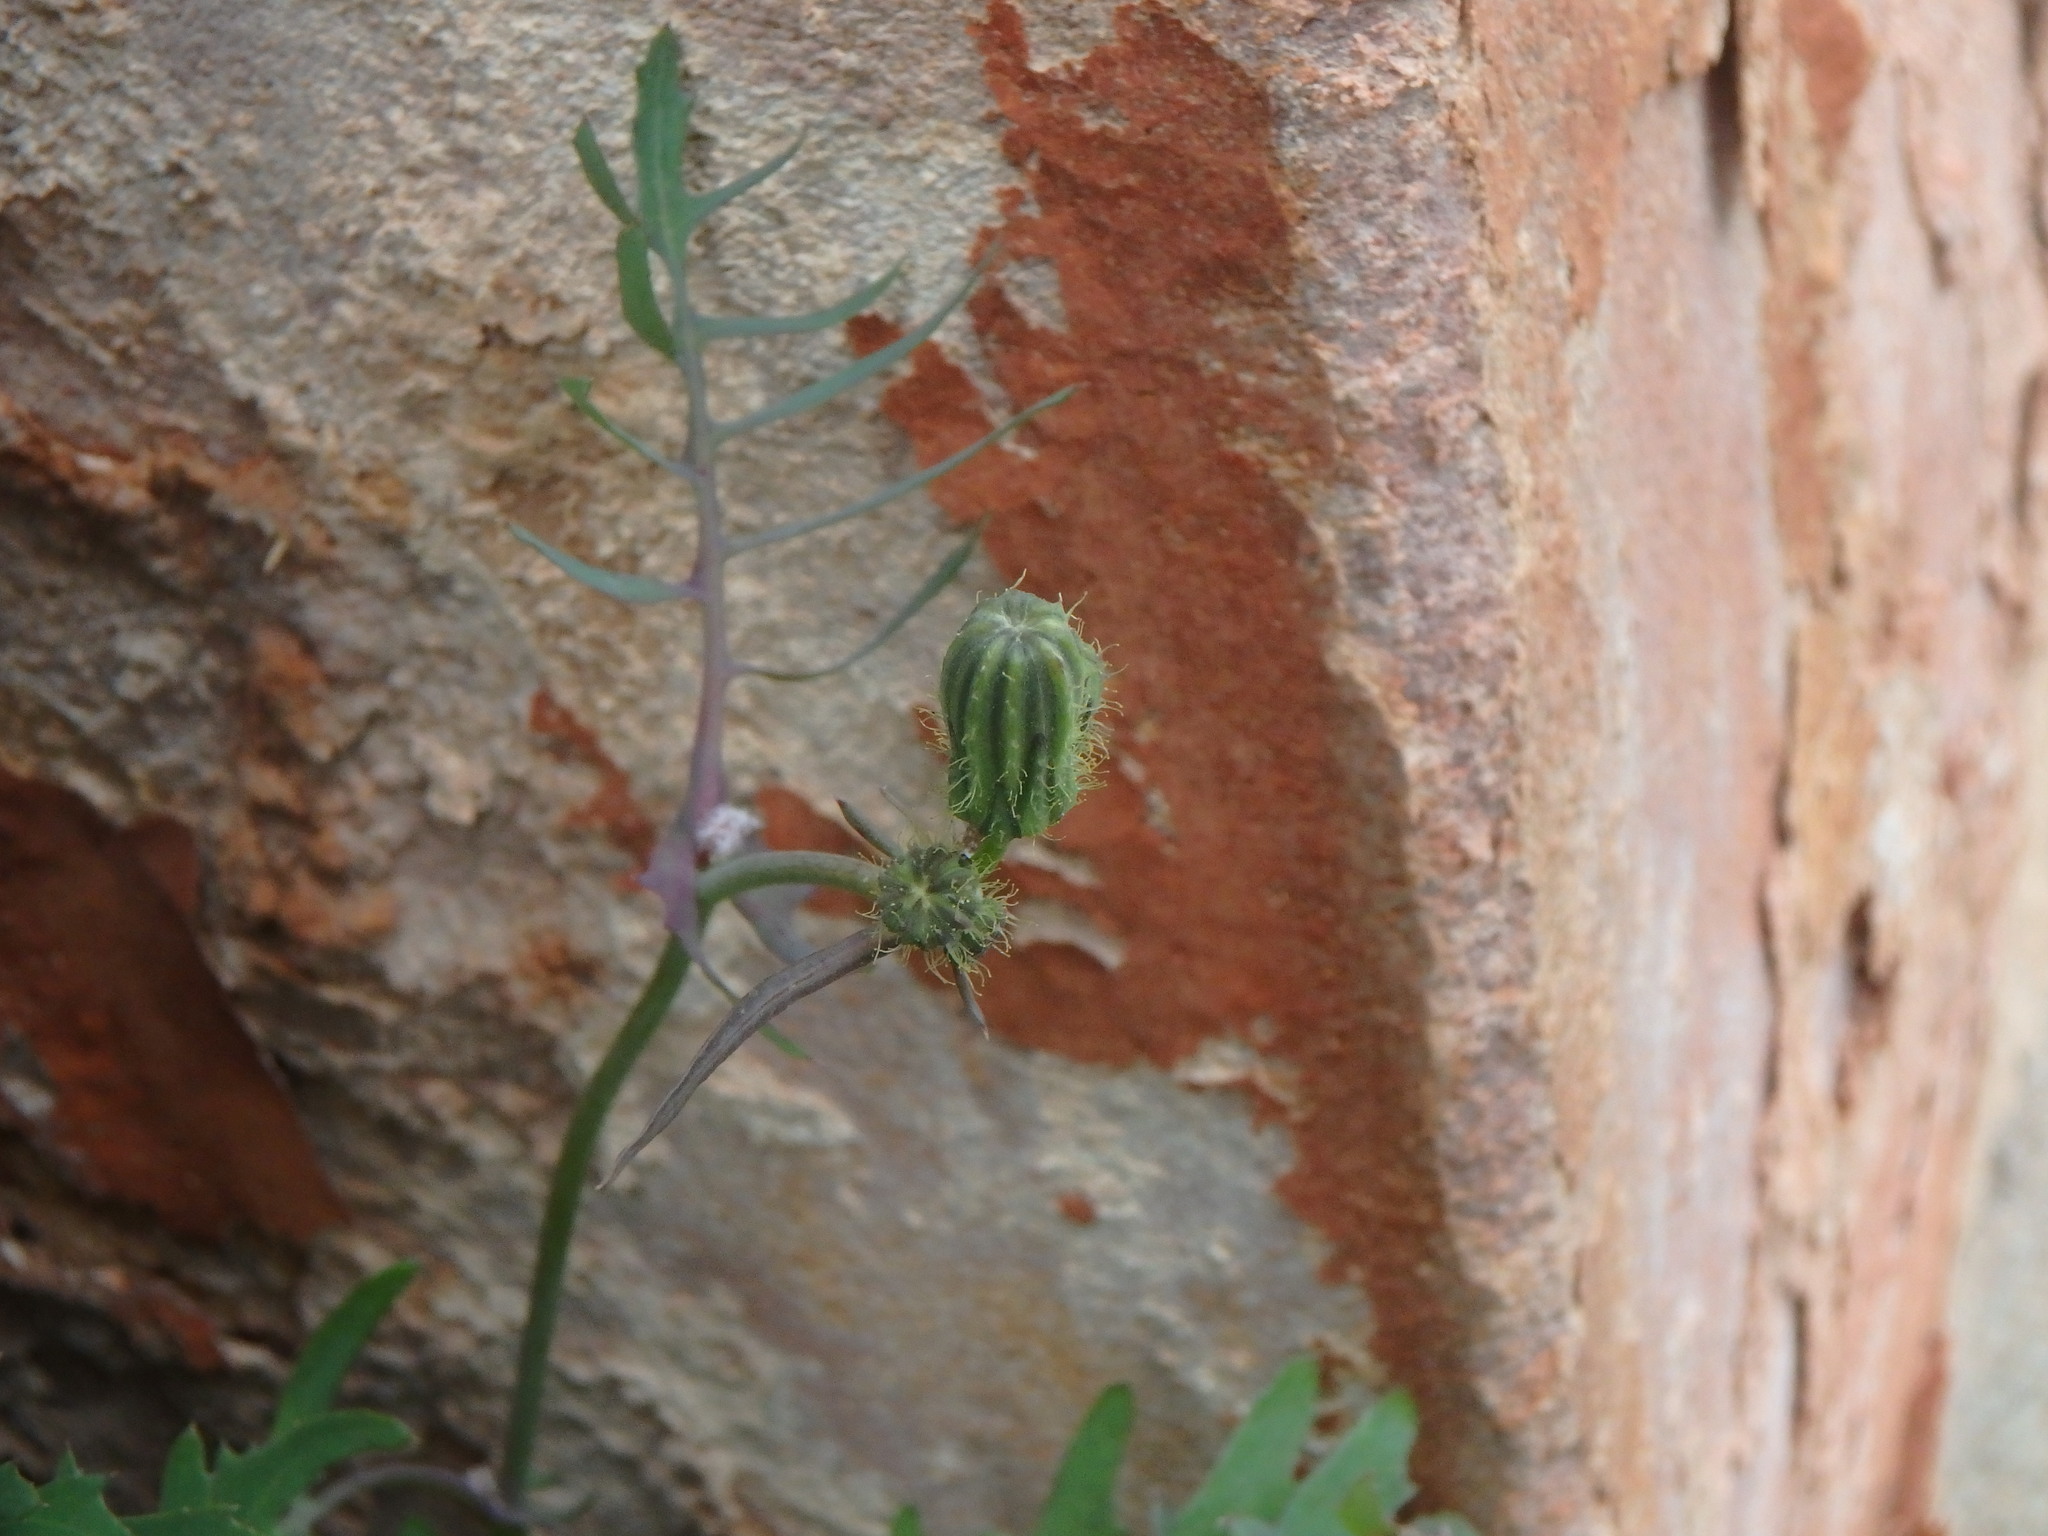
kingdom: Plantae
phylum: Tracheophyta
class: Magnoliopsida
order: Asterales
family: Asteraceae
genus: Sonchus
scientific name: Sonchus tenerrimus
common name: Clammy sowthistle
